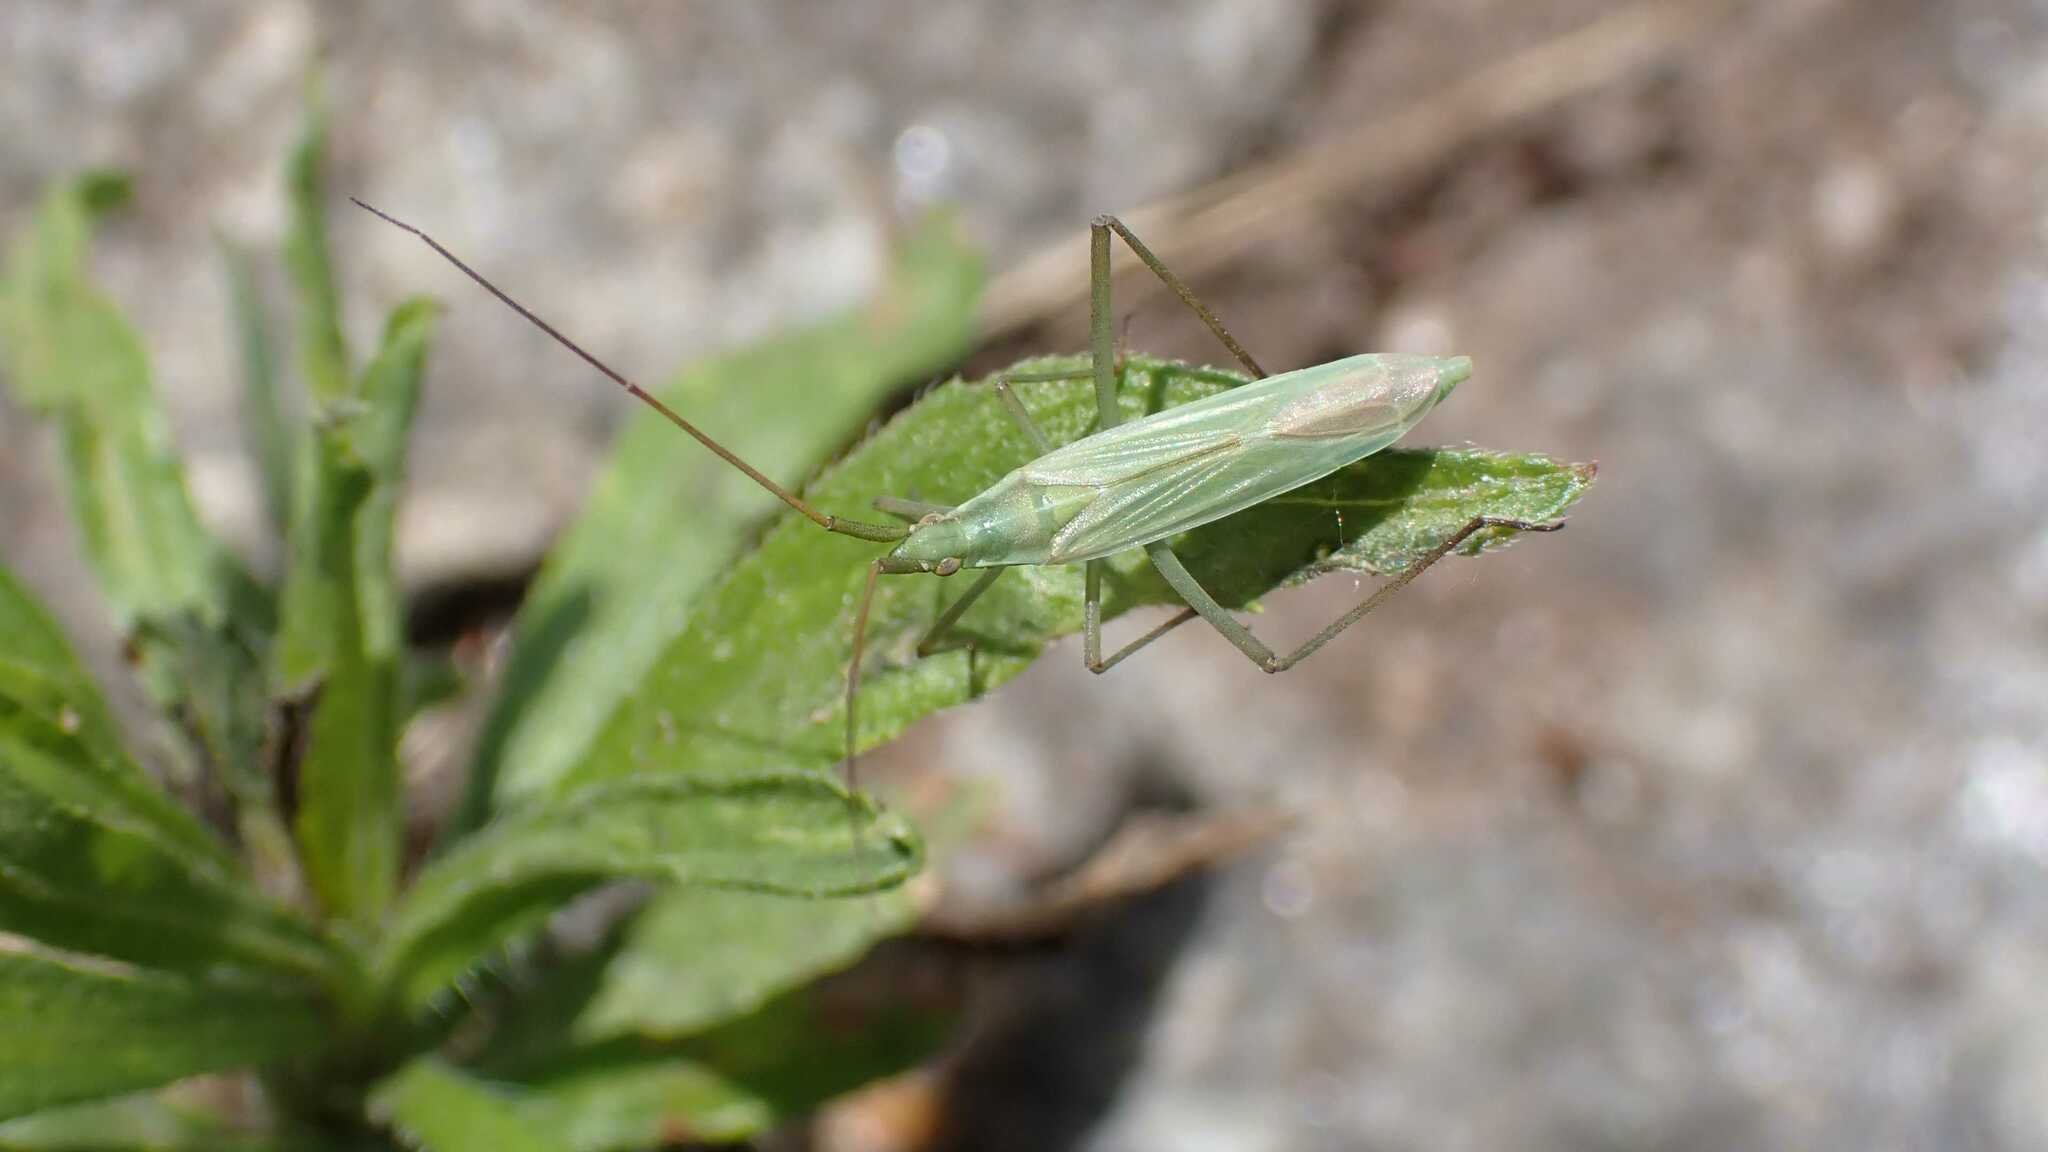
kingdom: Animalia
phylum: Arthropoda
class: Insecta
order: Hemiptera
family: Miridae
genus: Megaloceroea
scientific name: Megaloceroea recticornis
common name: Plant bug
